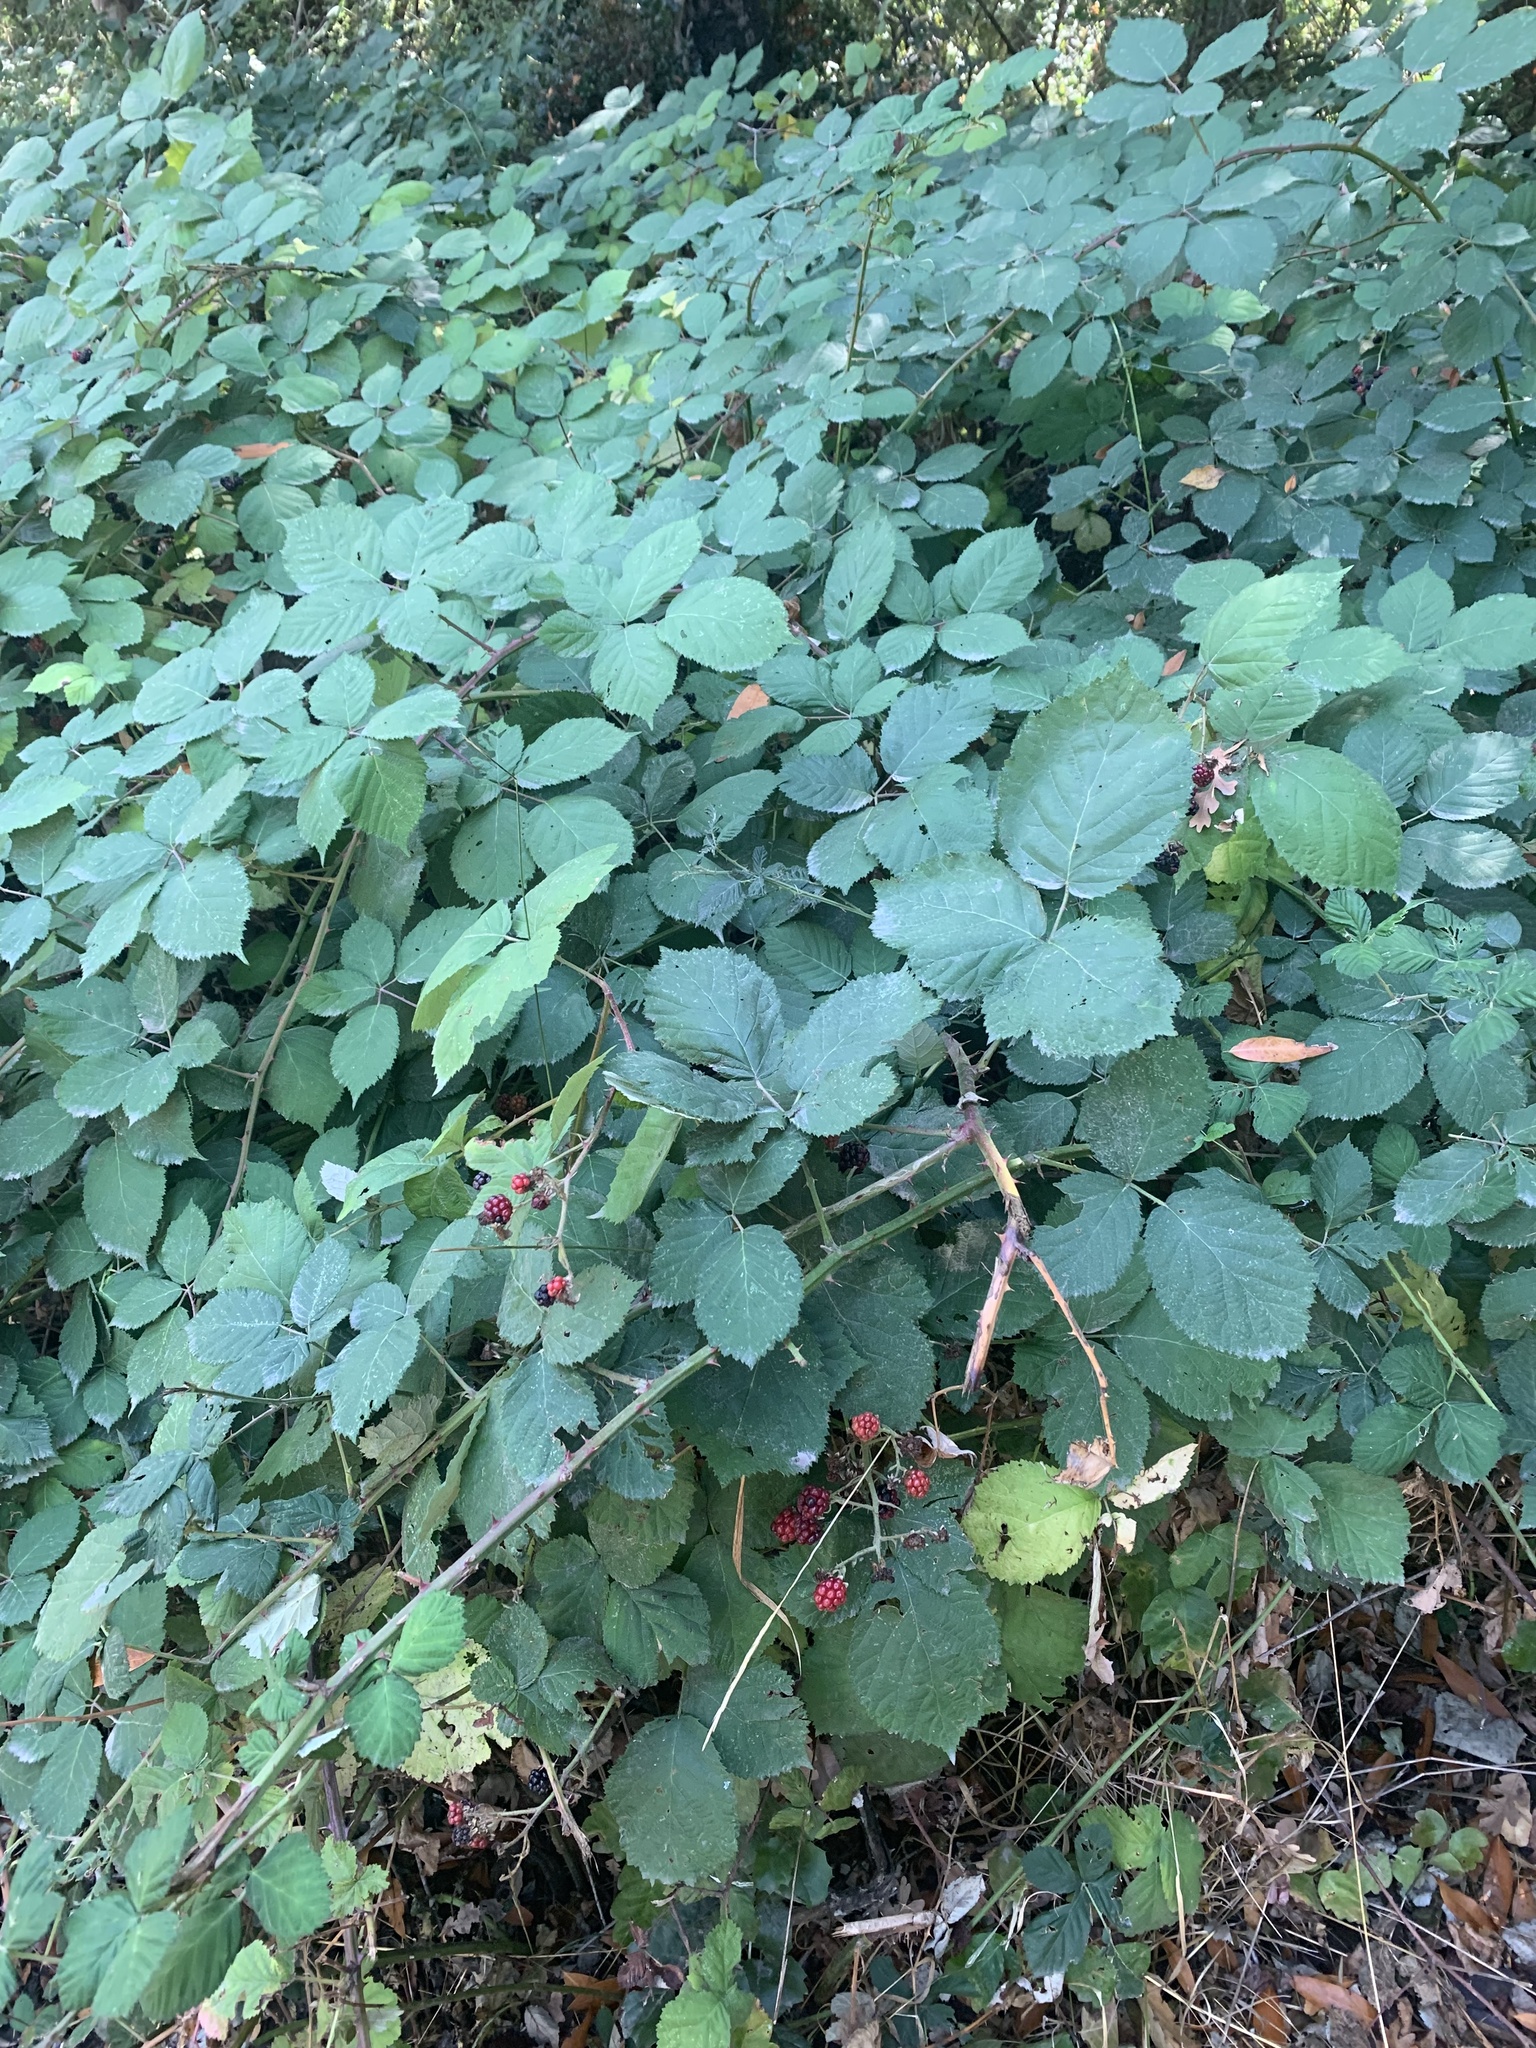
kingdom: Plantae
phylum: Tracheophyta
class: Magnoliopsida
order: Rosales
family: Rosaceae
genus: Rubus
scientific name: Rubus armeniacus
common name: Himalayan blackberry
